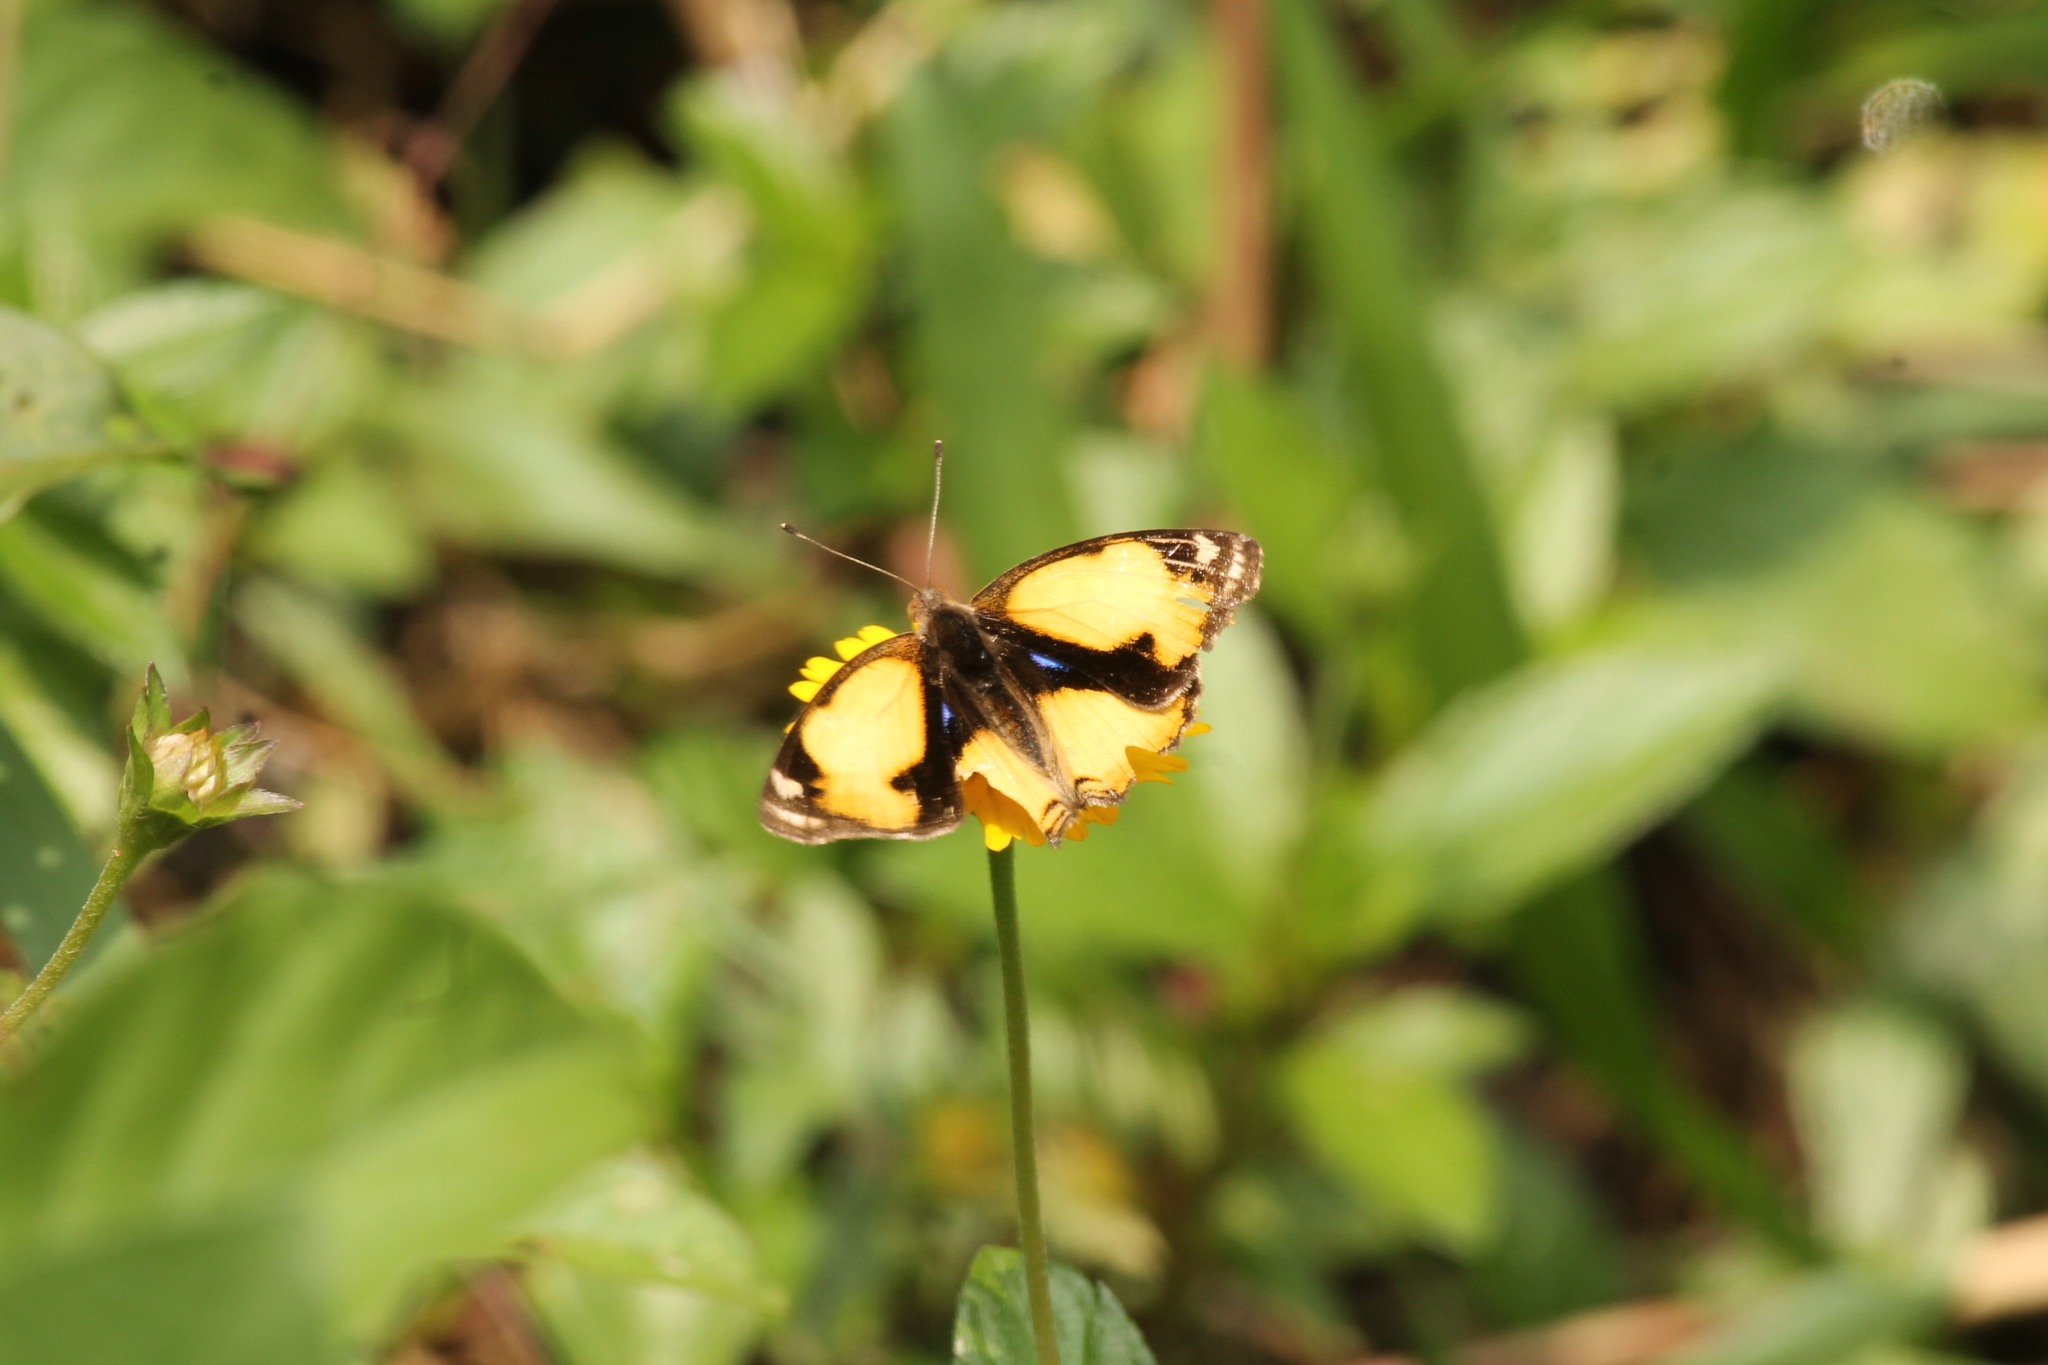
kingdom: Animalia
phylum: Arthropoda
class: Insecta
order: Lepidoptera
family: Nymphalidae
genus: Junonia
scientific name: Junonia hierta
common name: Yellow pansy
